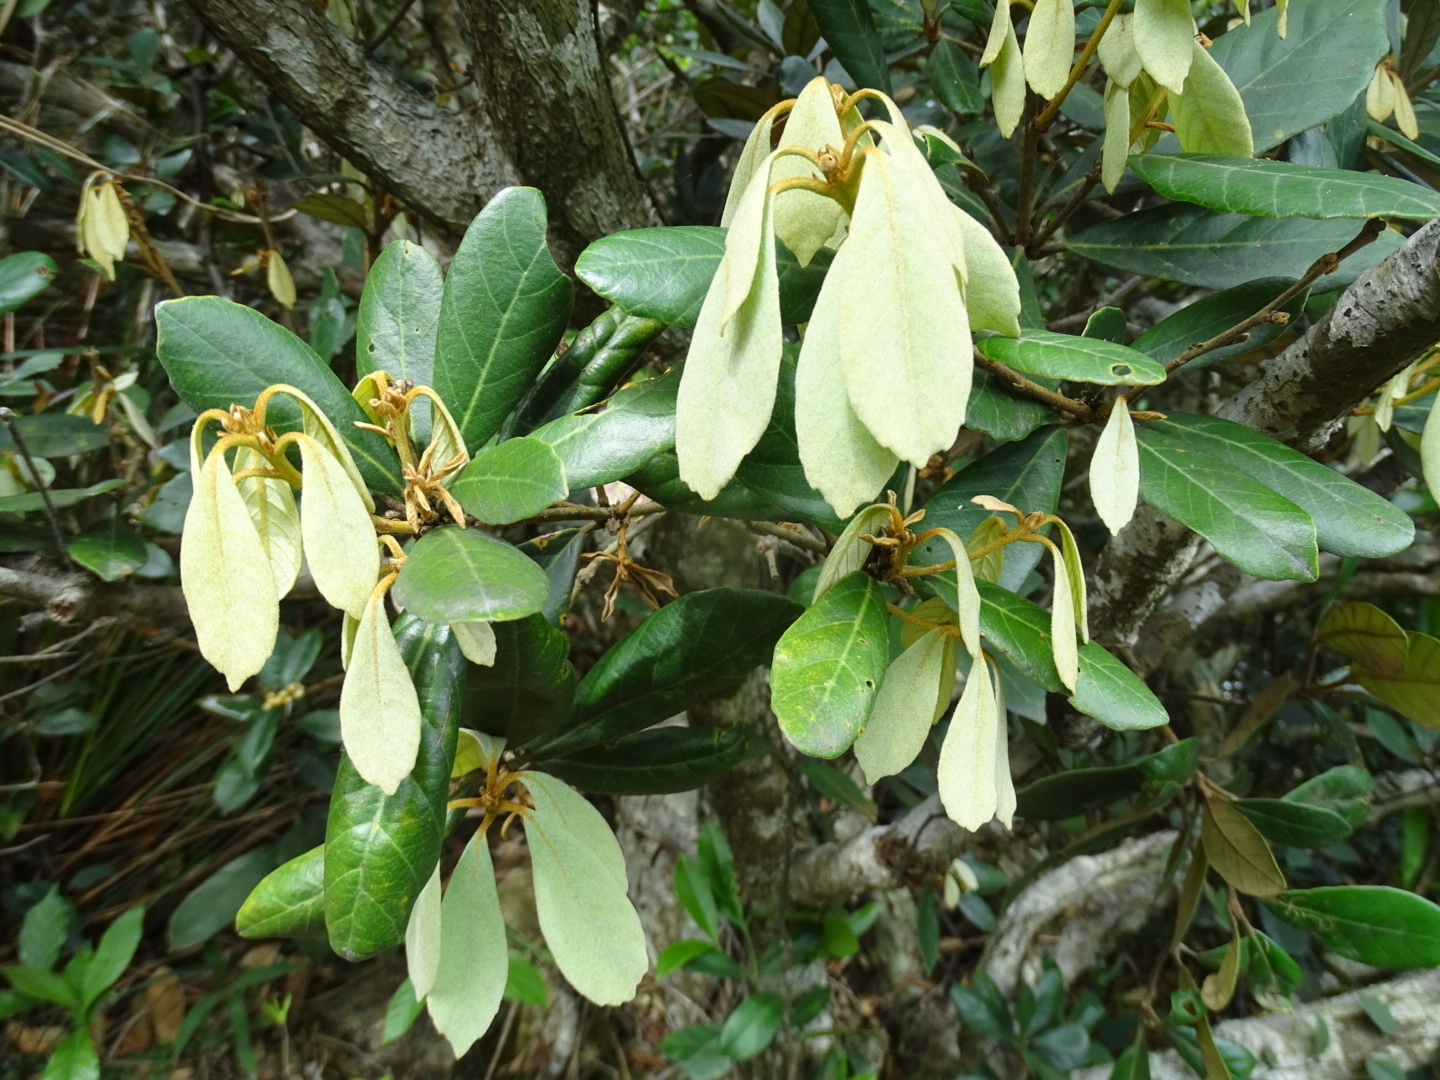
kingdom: Plantae
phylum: Tracheophyta
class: Magnoliopsida
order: Fagales
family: Fagaceae
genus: Quercus
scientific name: Quercus championii
